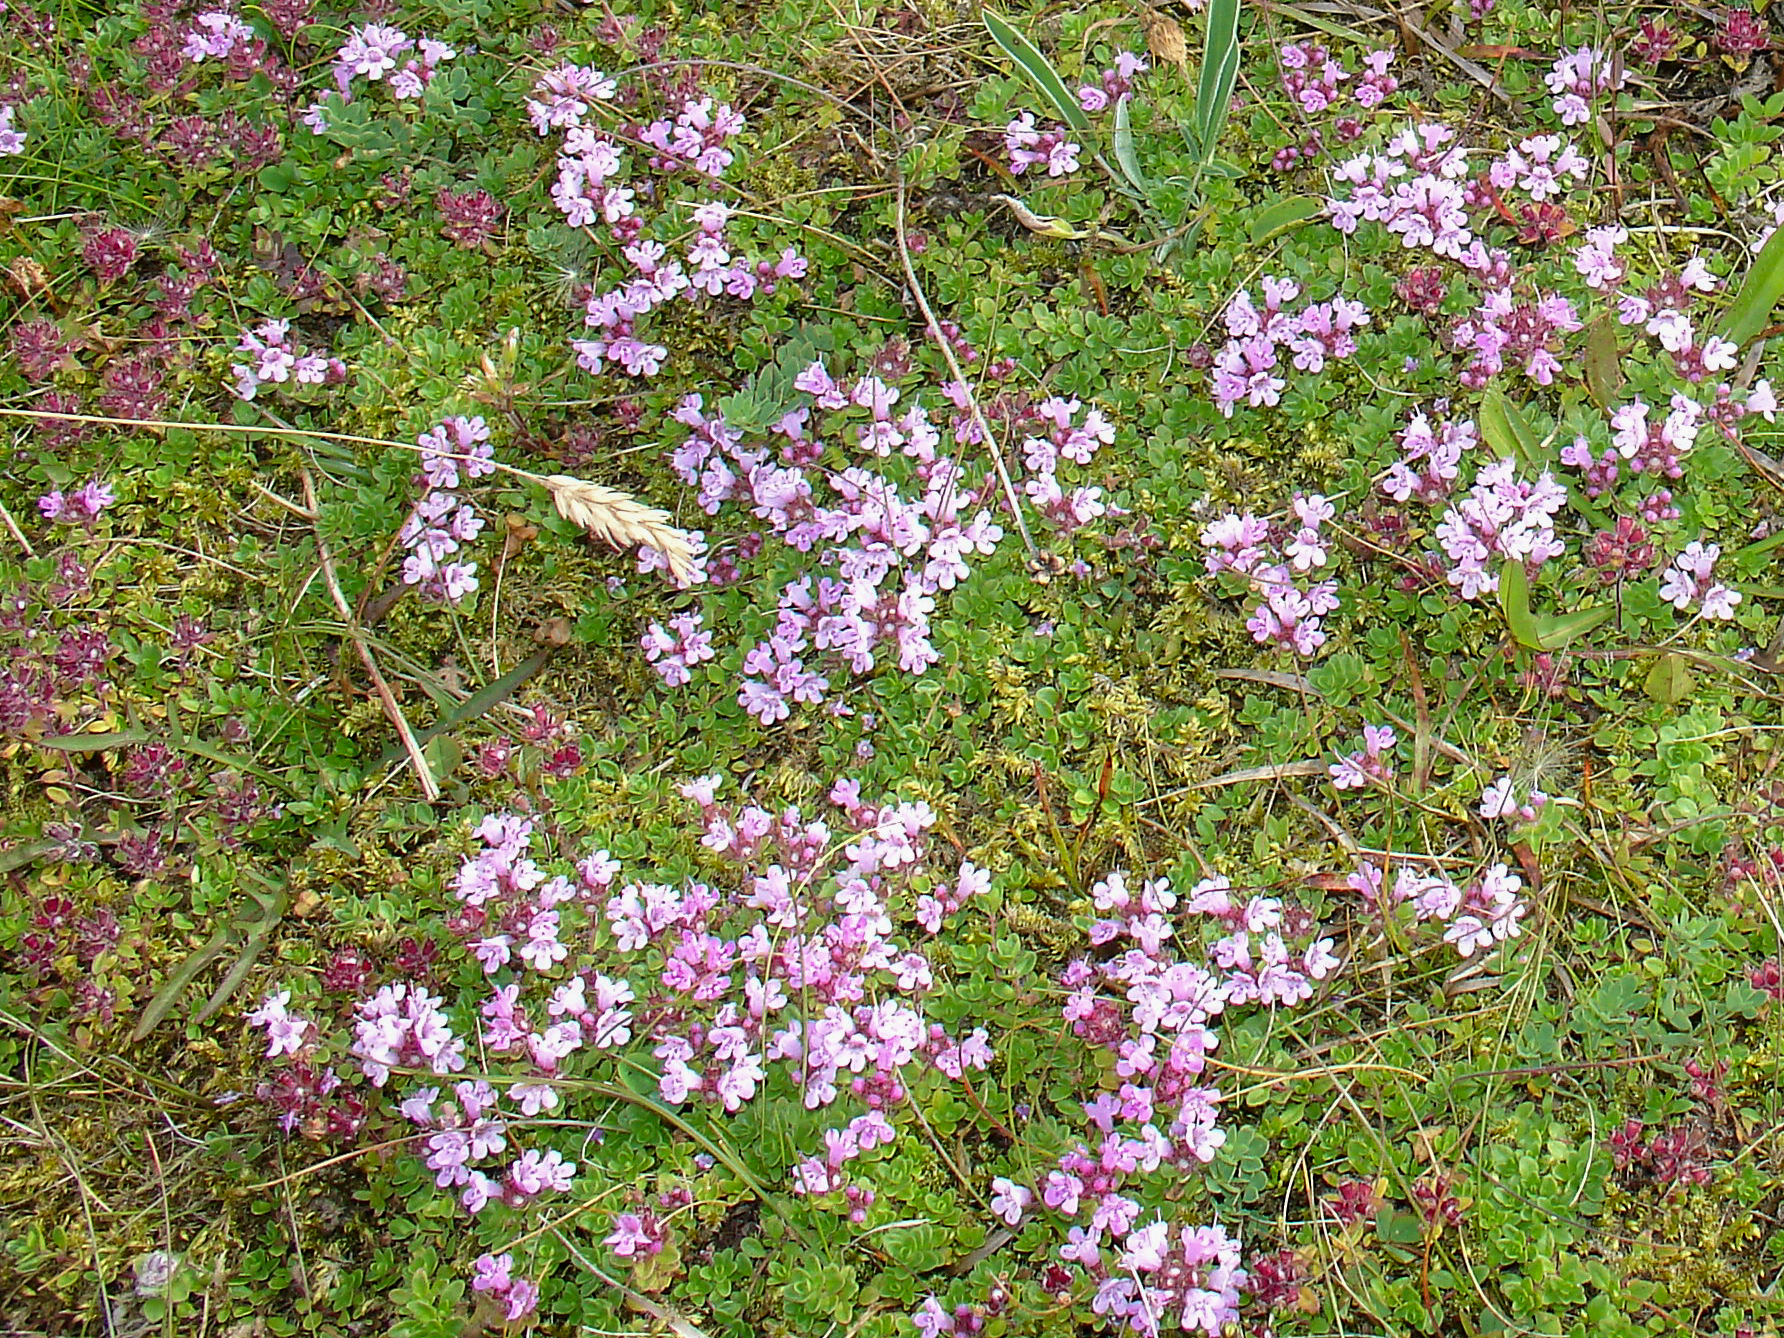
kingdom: Plantae
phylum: Tracheophyta
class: Magnoliopsida
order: Lamiales
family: Lamiaceae
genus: Thymus
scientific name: Thymus praecox
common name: Wild thyme
